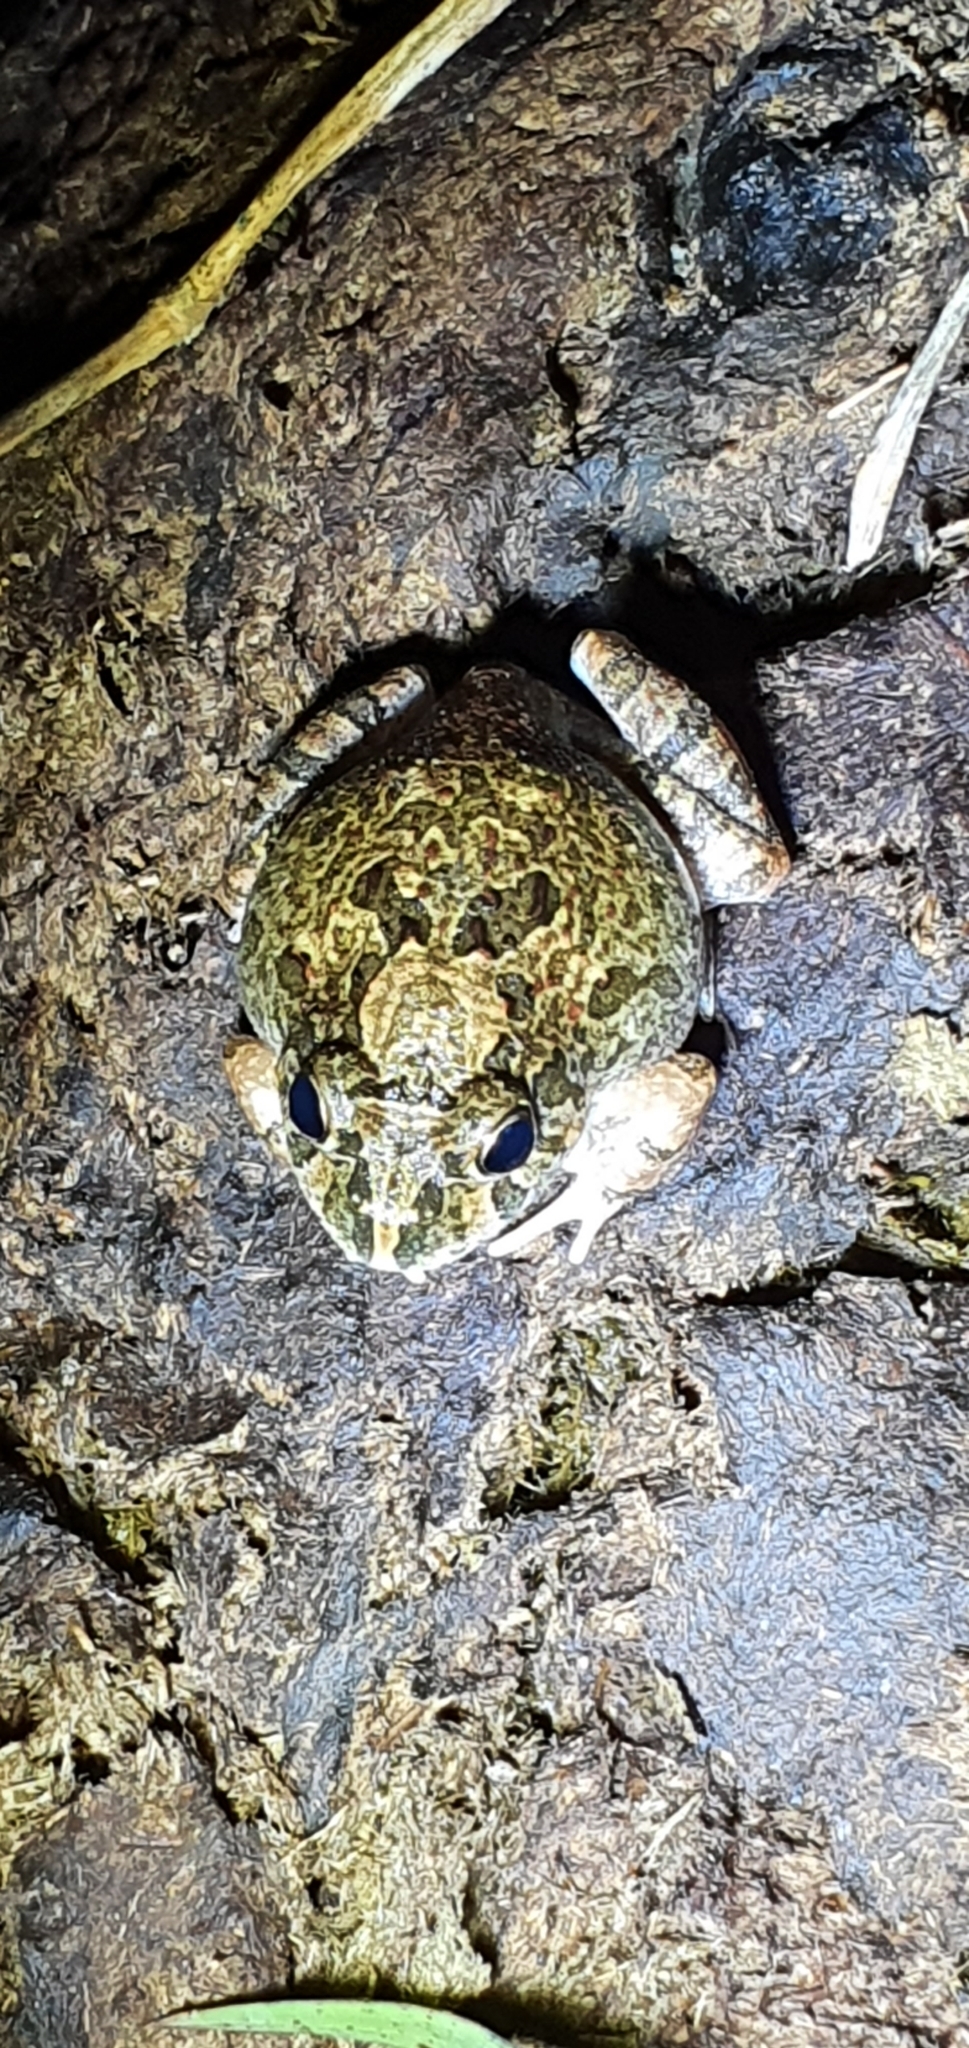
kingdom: Animalia
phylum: Chordata
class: Amphibia
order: Anura
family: Limnodynastidae
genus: Platyplectrum
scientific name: Platyplectrum ornatum
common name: Ornate burrowing frog
